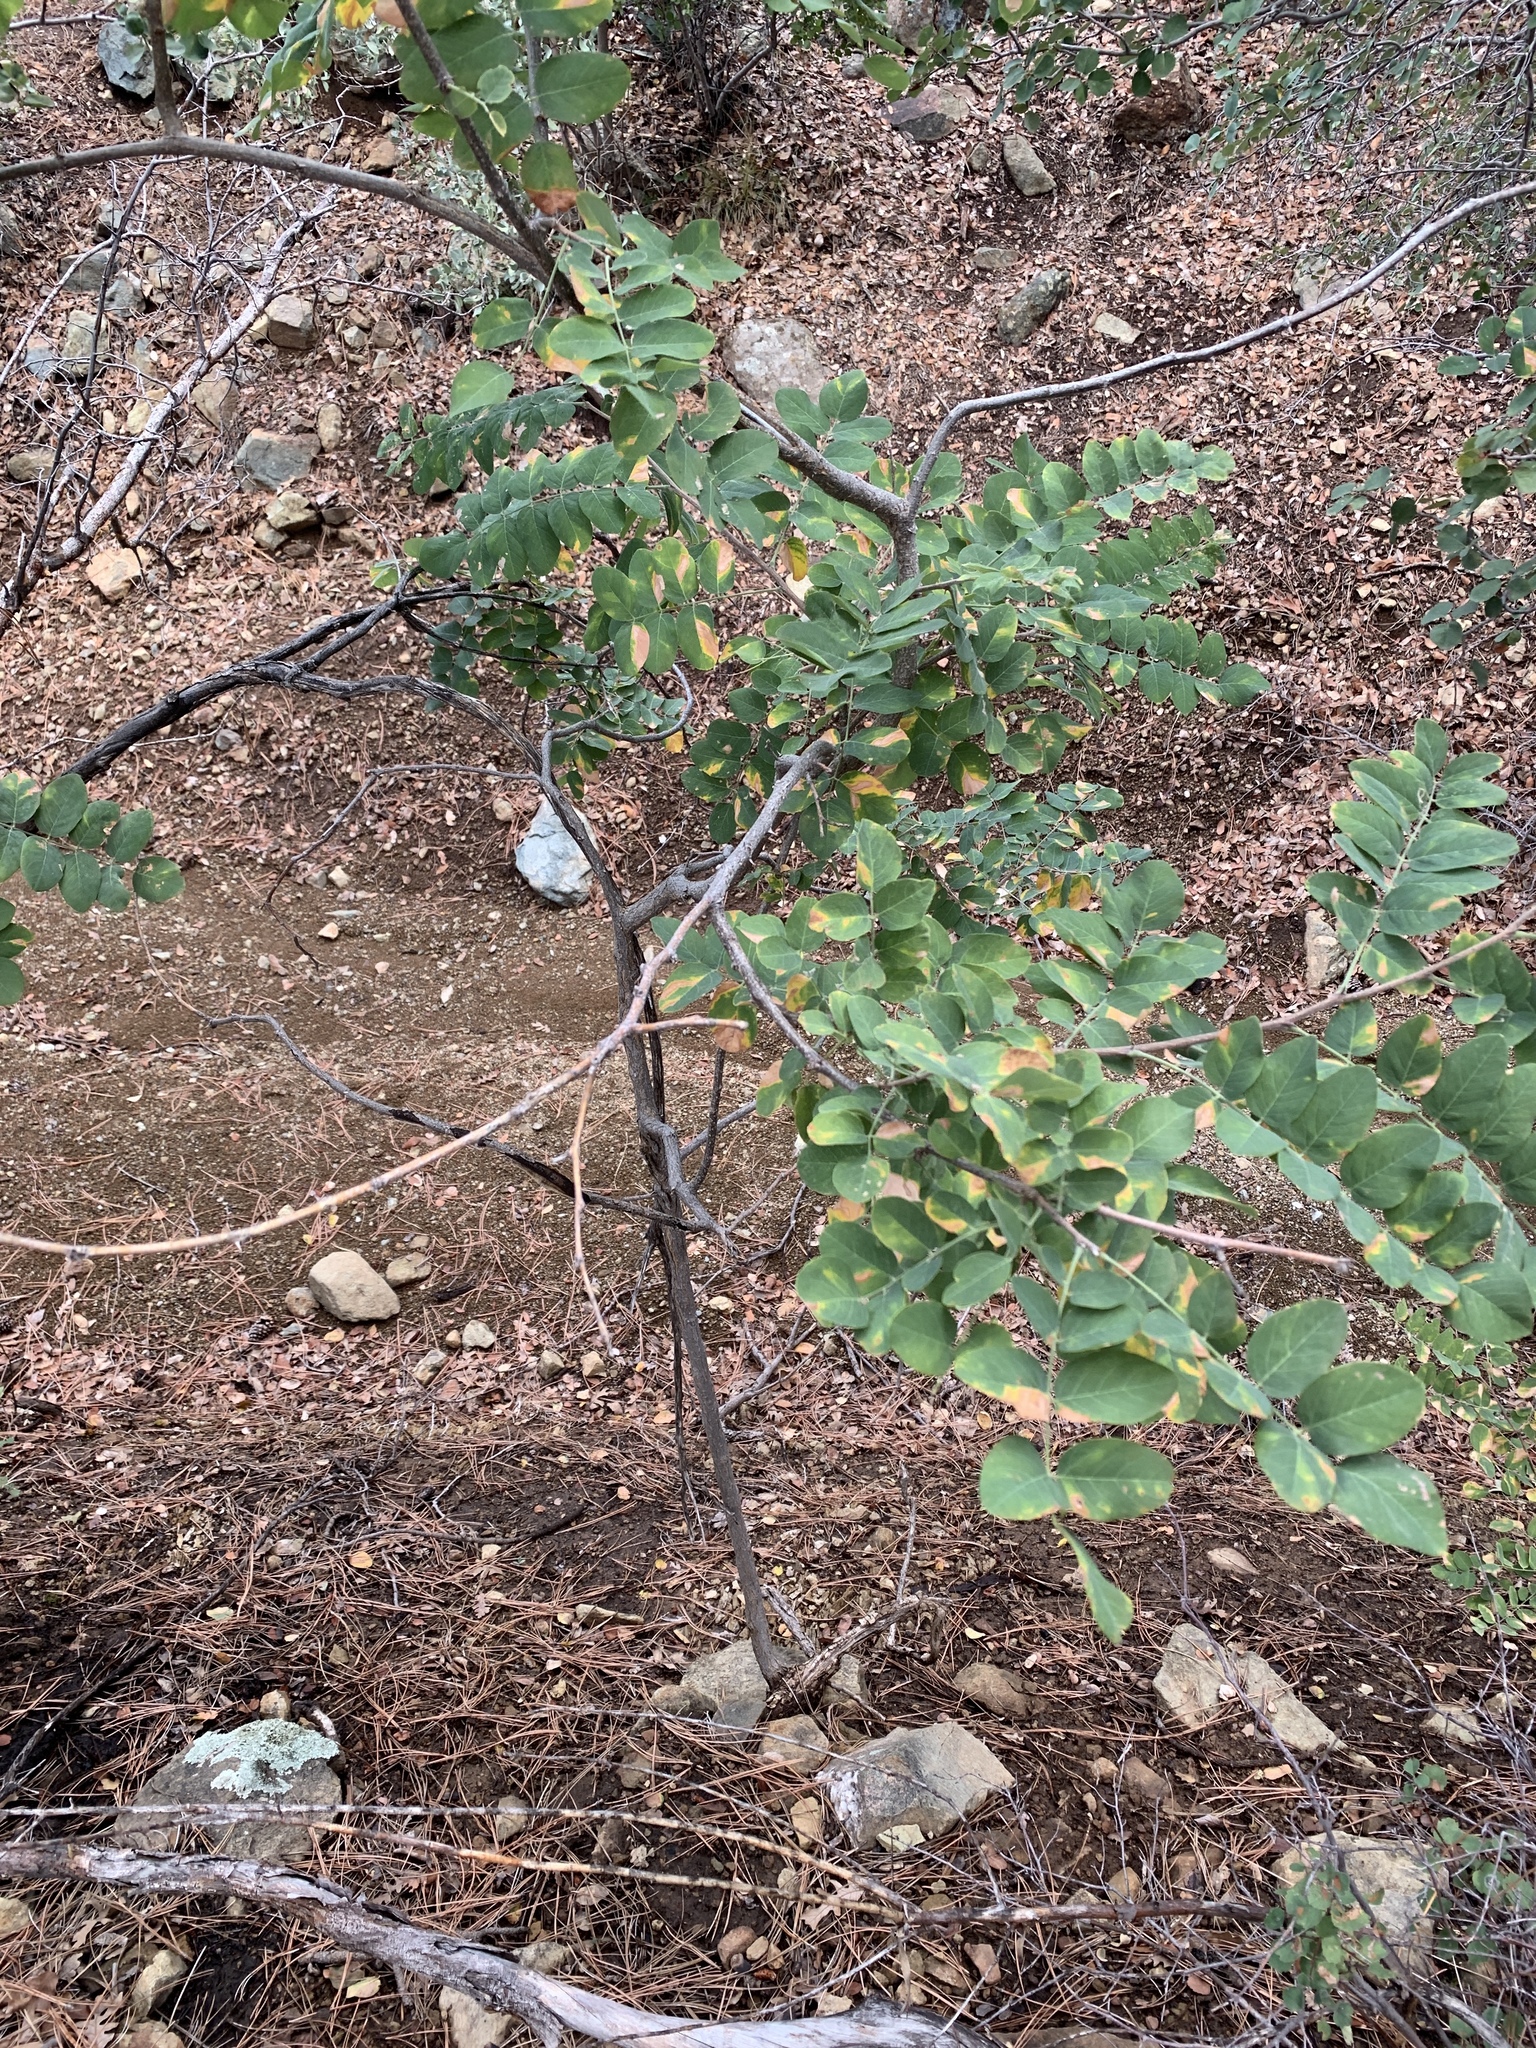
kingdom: Plantae
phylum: Tracheophyta
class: Magnoliopsida
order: Fabales
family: Fabaceae
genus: Robinia
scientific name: Robinia neomexicana
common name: New mexico locust
